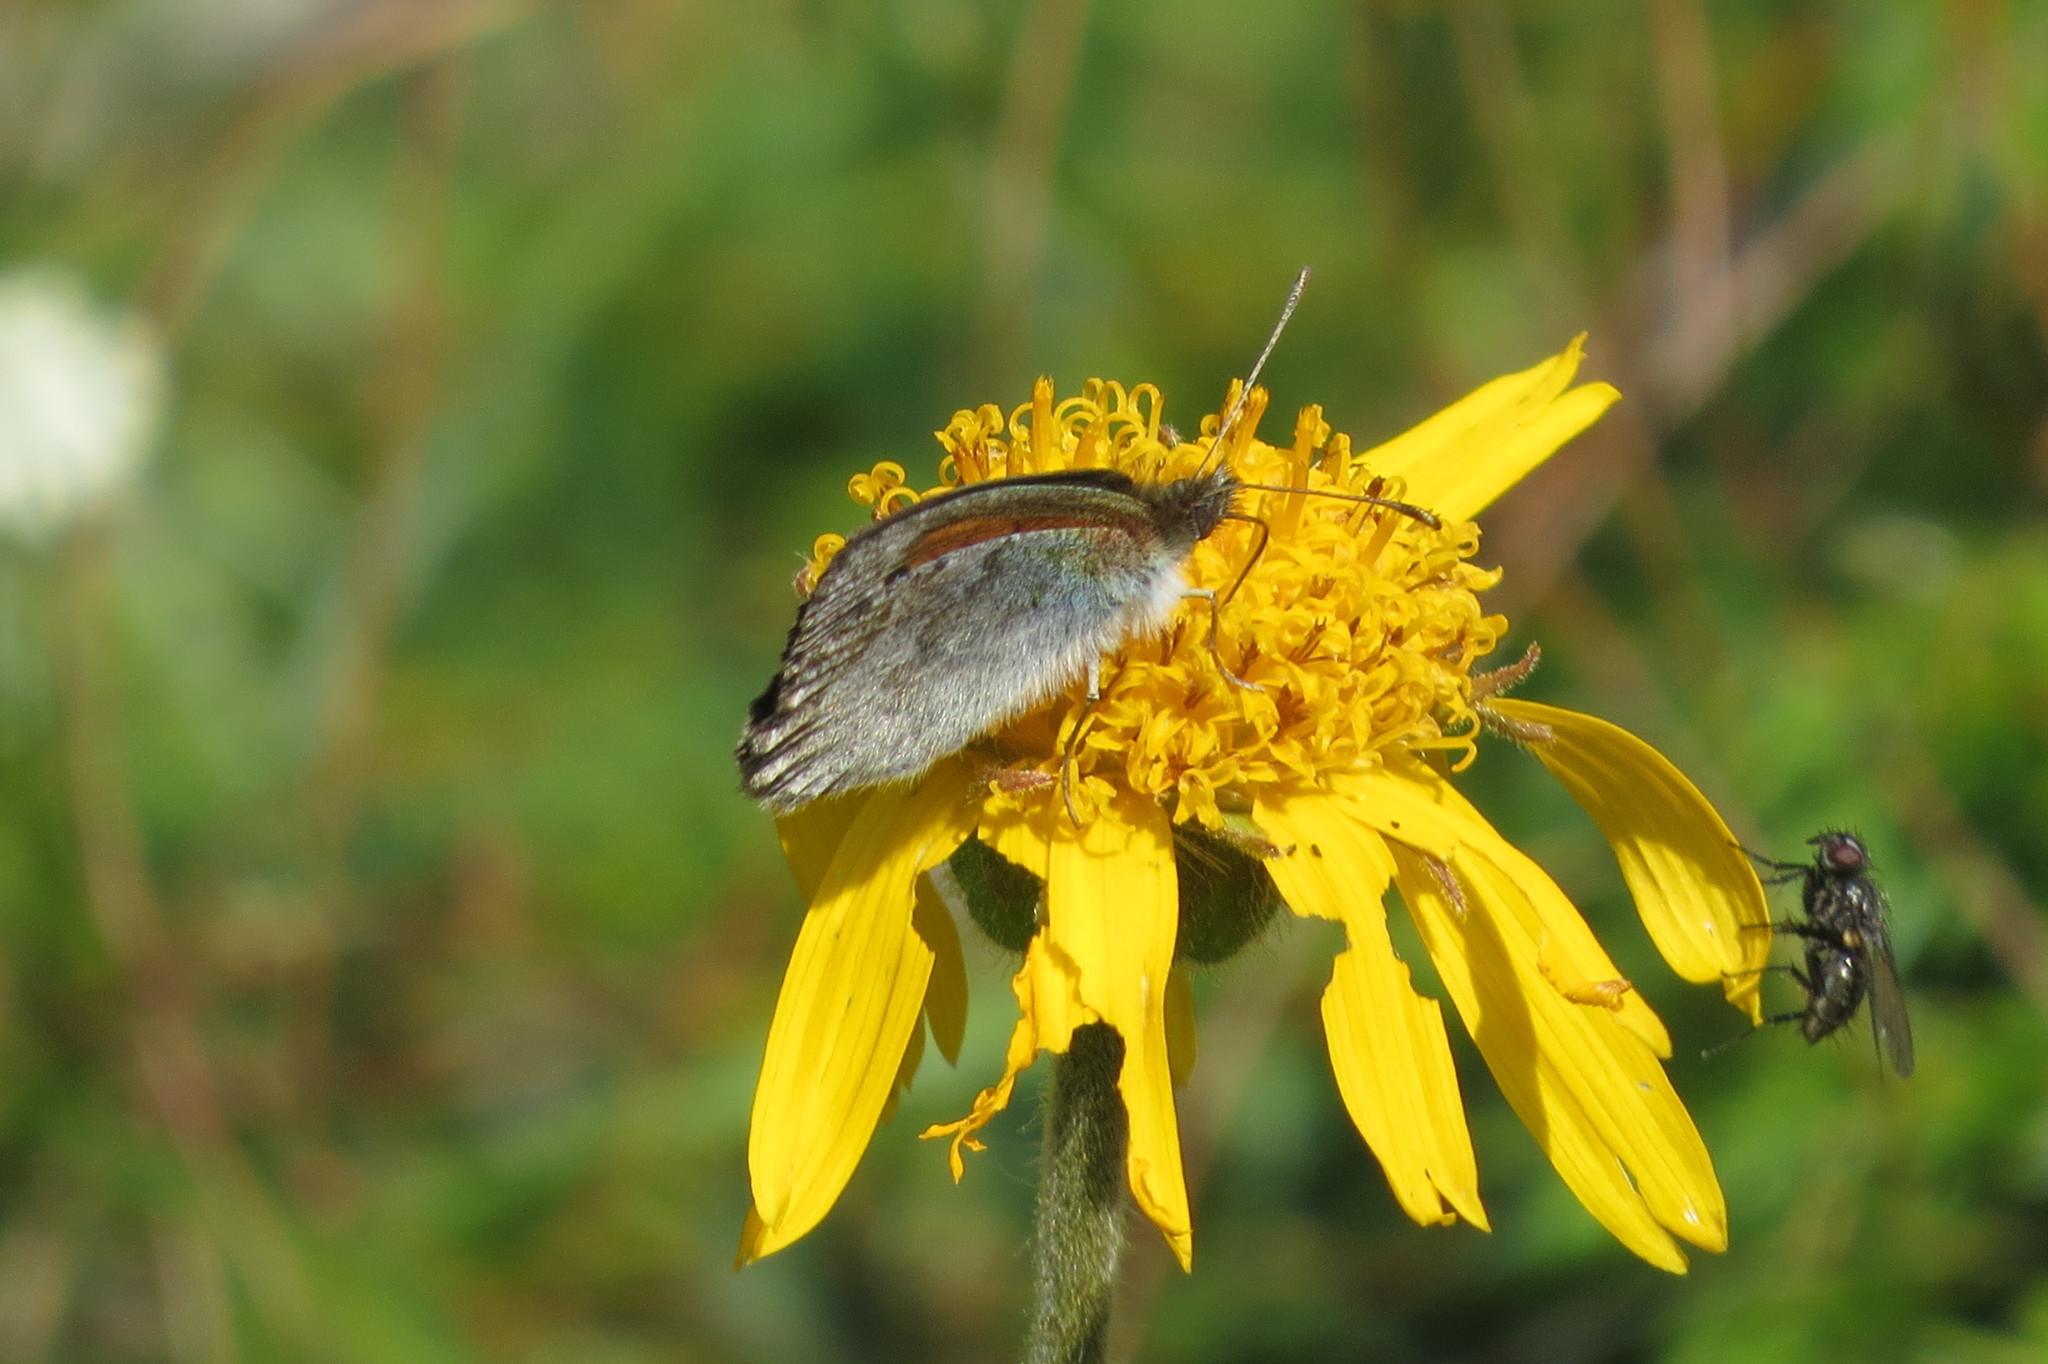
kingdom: Animalia
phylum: Arthropoda
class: Insecta
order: Lepidoptera
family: Nymphalidae
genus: Erebia
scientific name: Erebia tyndarus
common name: Swiss brassy ringlet
